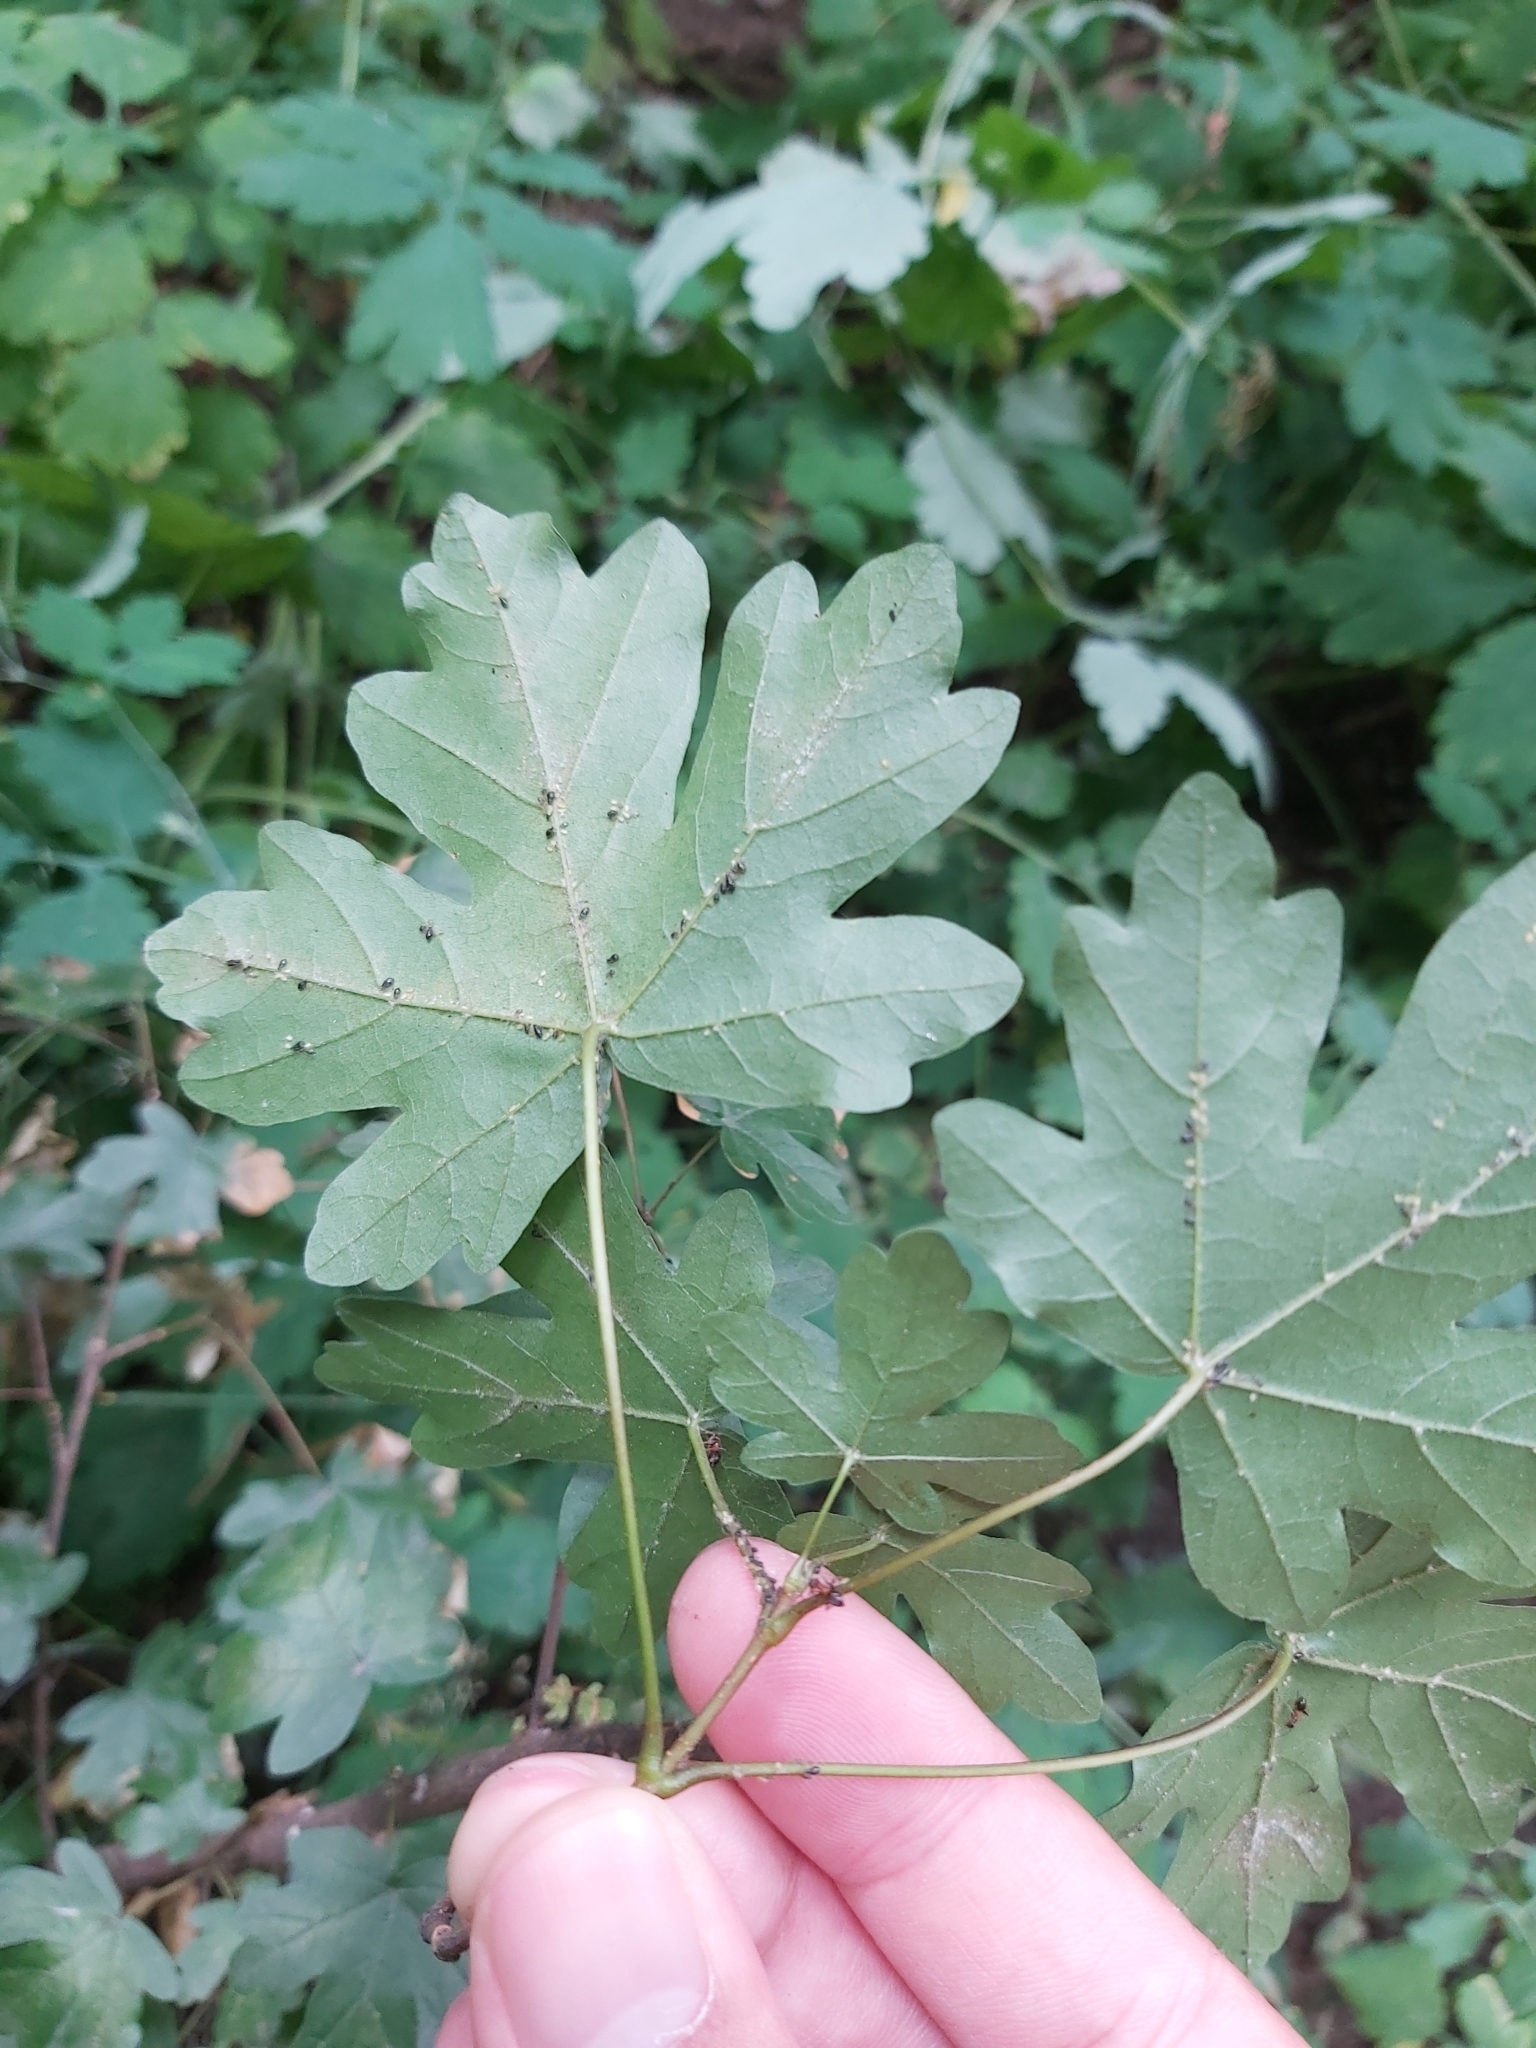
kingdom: Plantae
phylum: Tracheophyta
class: Magnoliopsida
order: Sapindales
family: Sapindaceae
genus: Acer
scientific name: Acer campestre
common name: Field maple
